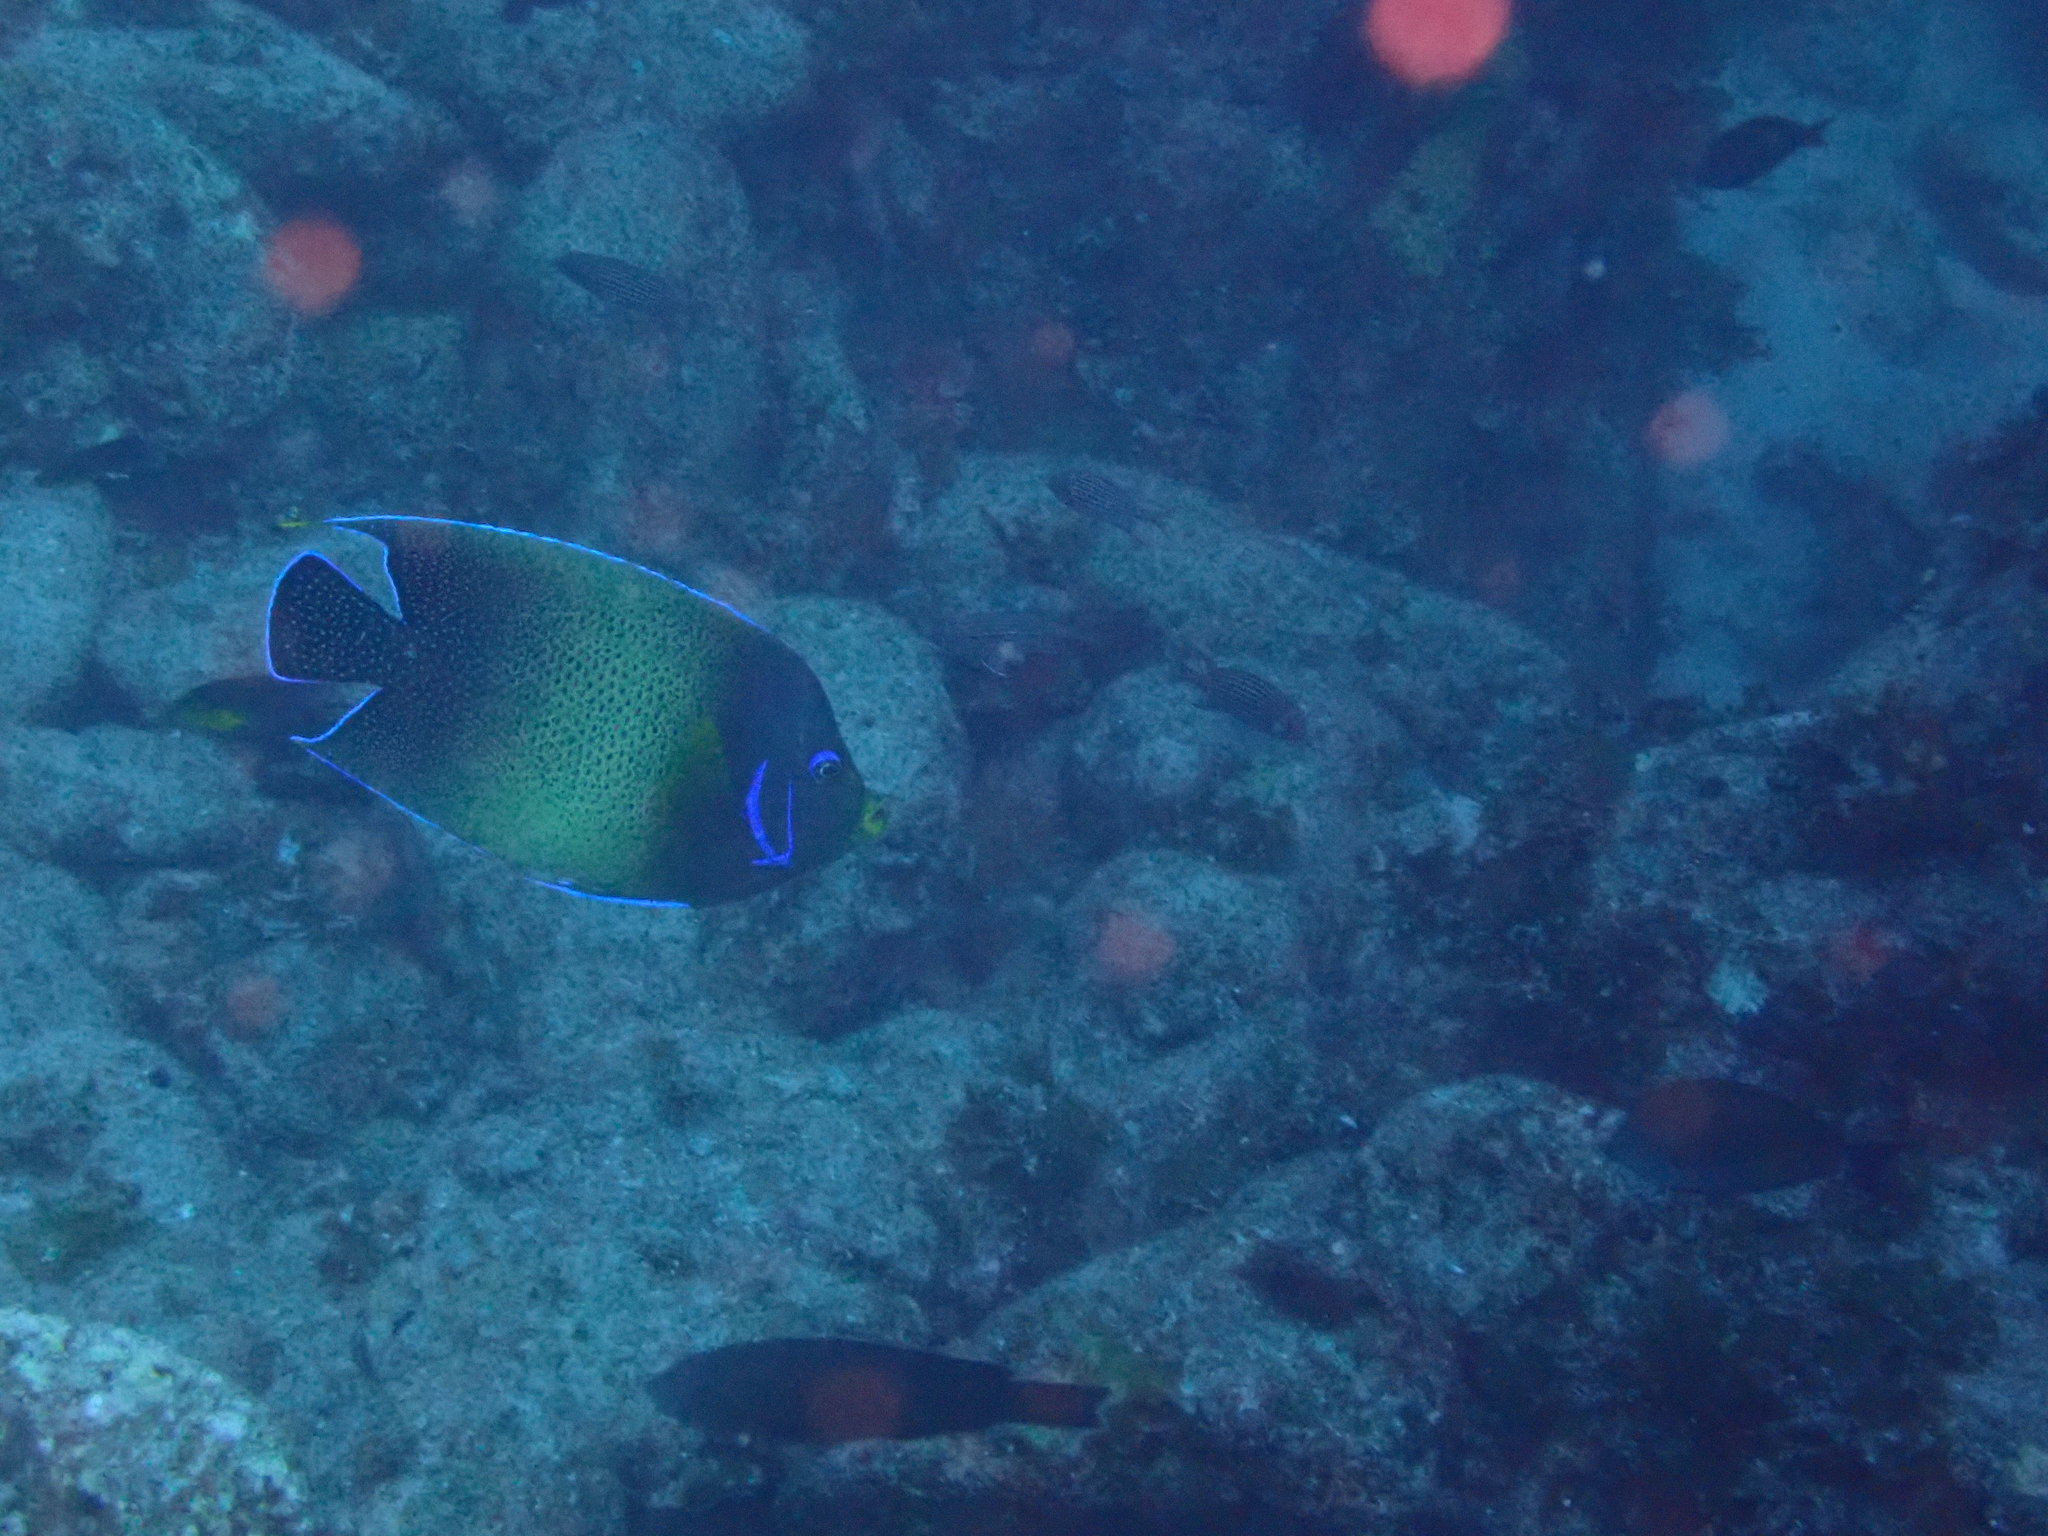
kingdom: Animalia
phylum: Chordata
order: Perciformes
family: Pomacanthidae
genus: Pomacanthus
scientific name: Pomacanthus semicirculatus
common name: Semicircle angelfish
